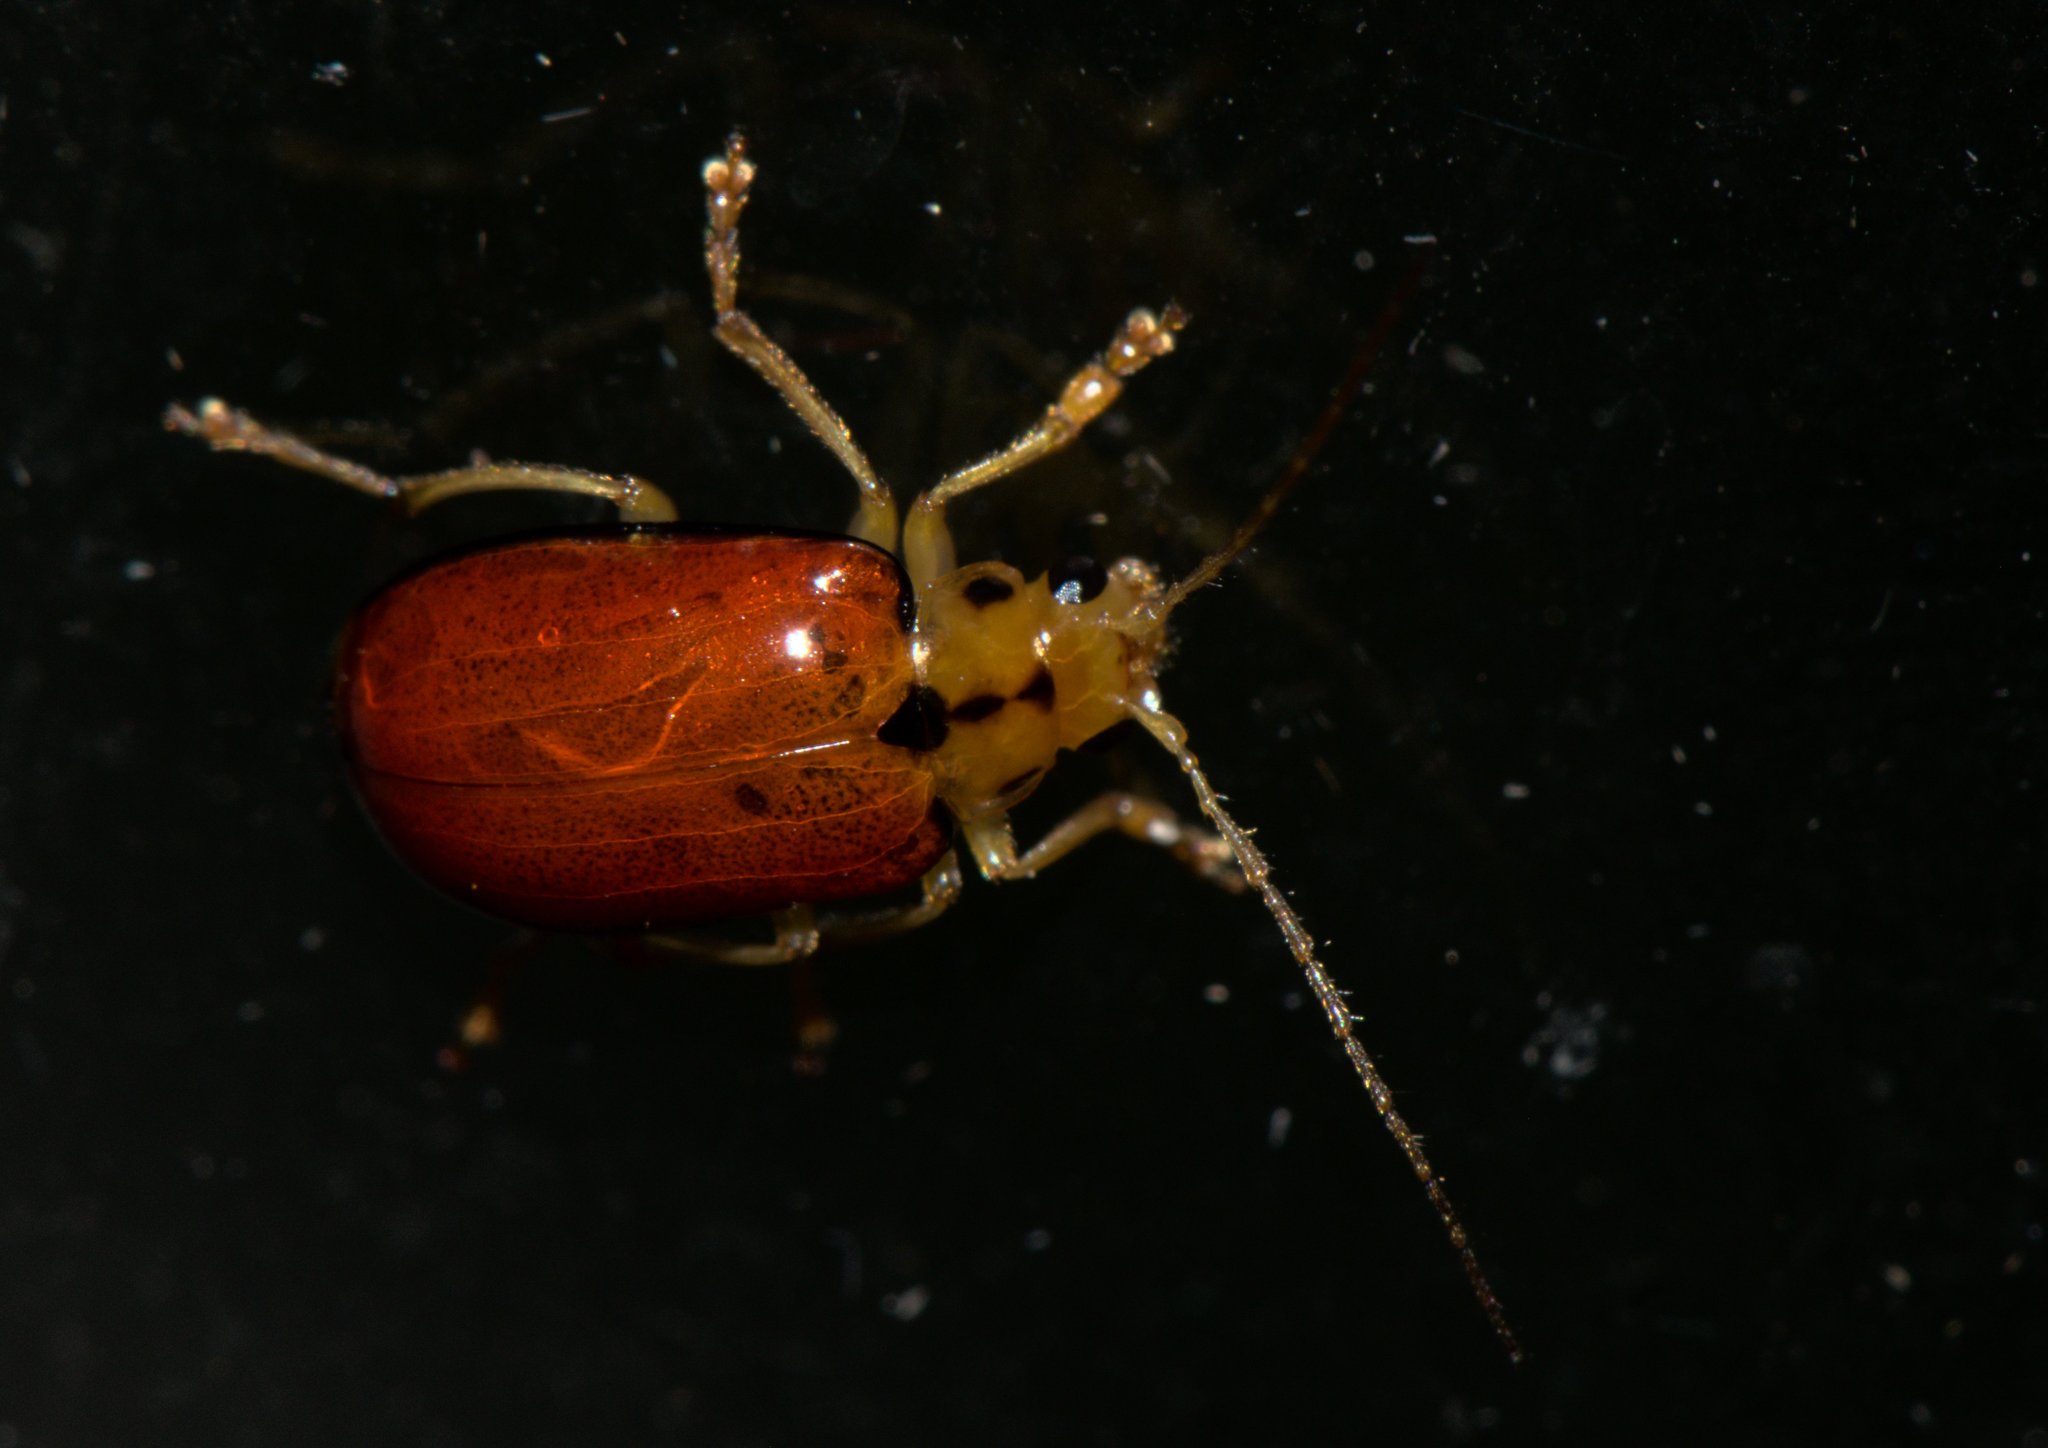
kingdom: Animalia
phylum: Arthropoda
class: Insecta
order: Coleoptera
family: Chrysomelidae
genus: Macrima
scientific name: Macrima
